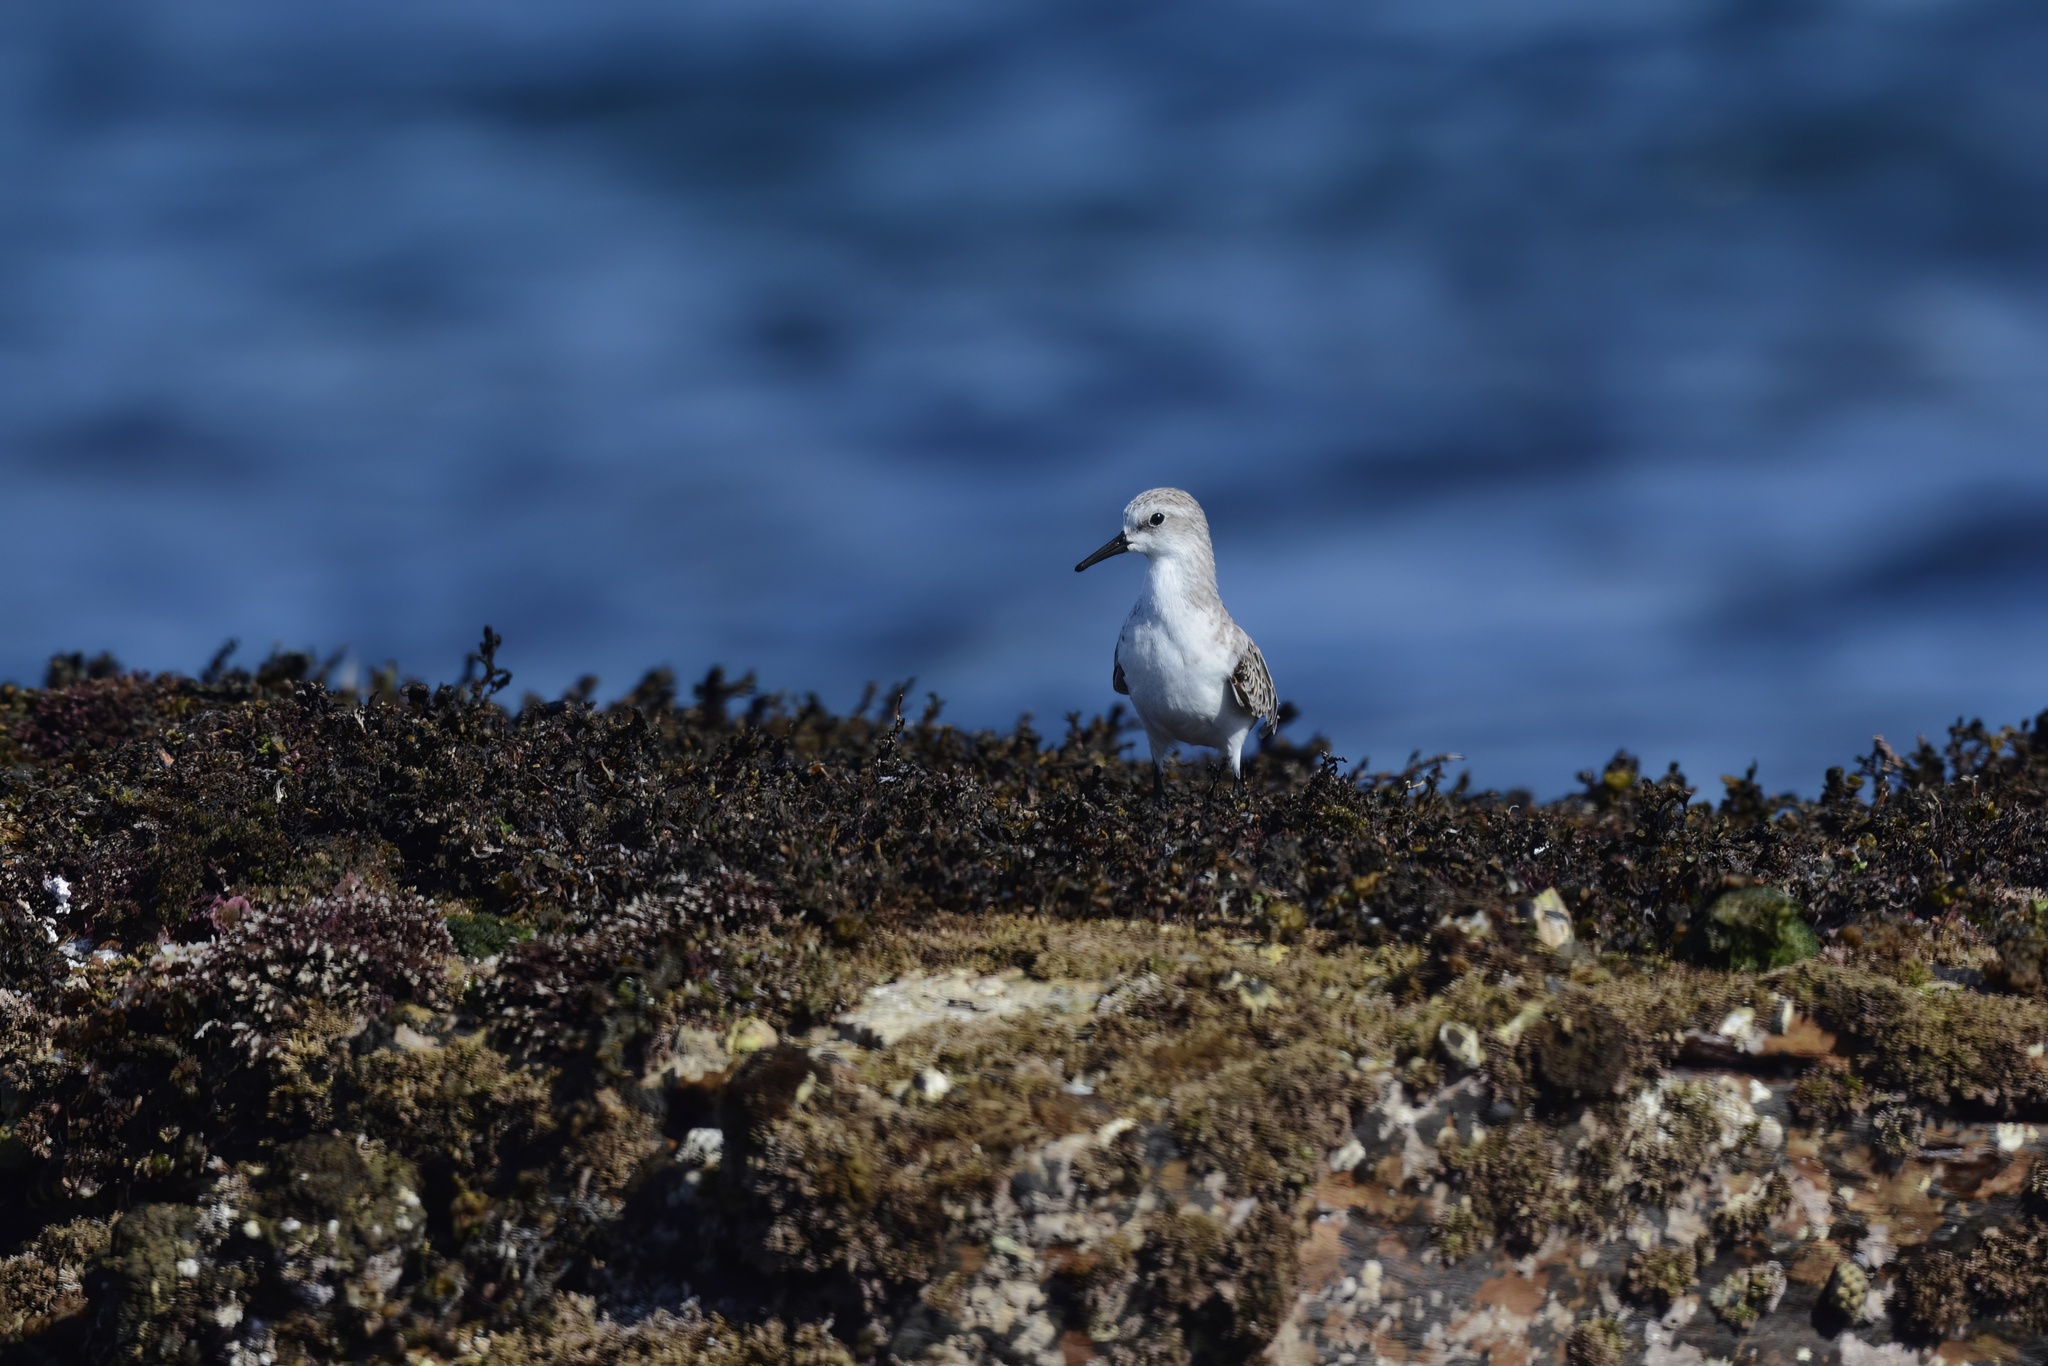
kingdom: Animalia
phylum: Chordata
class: Aves
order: Charadriiformes
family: Scolopacidae
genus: Calidris
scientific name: Calidris ruficollis
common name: Red-necked stint
